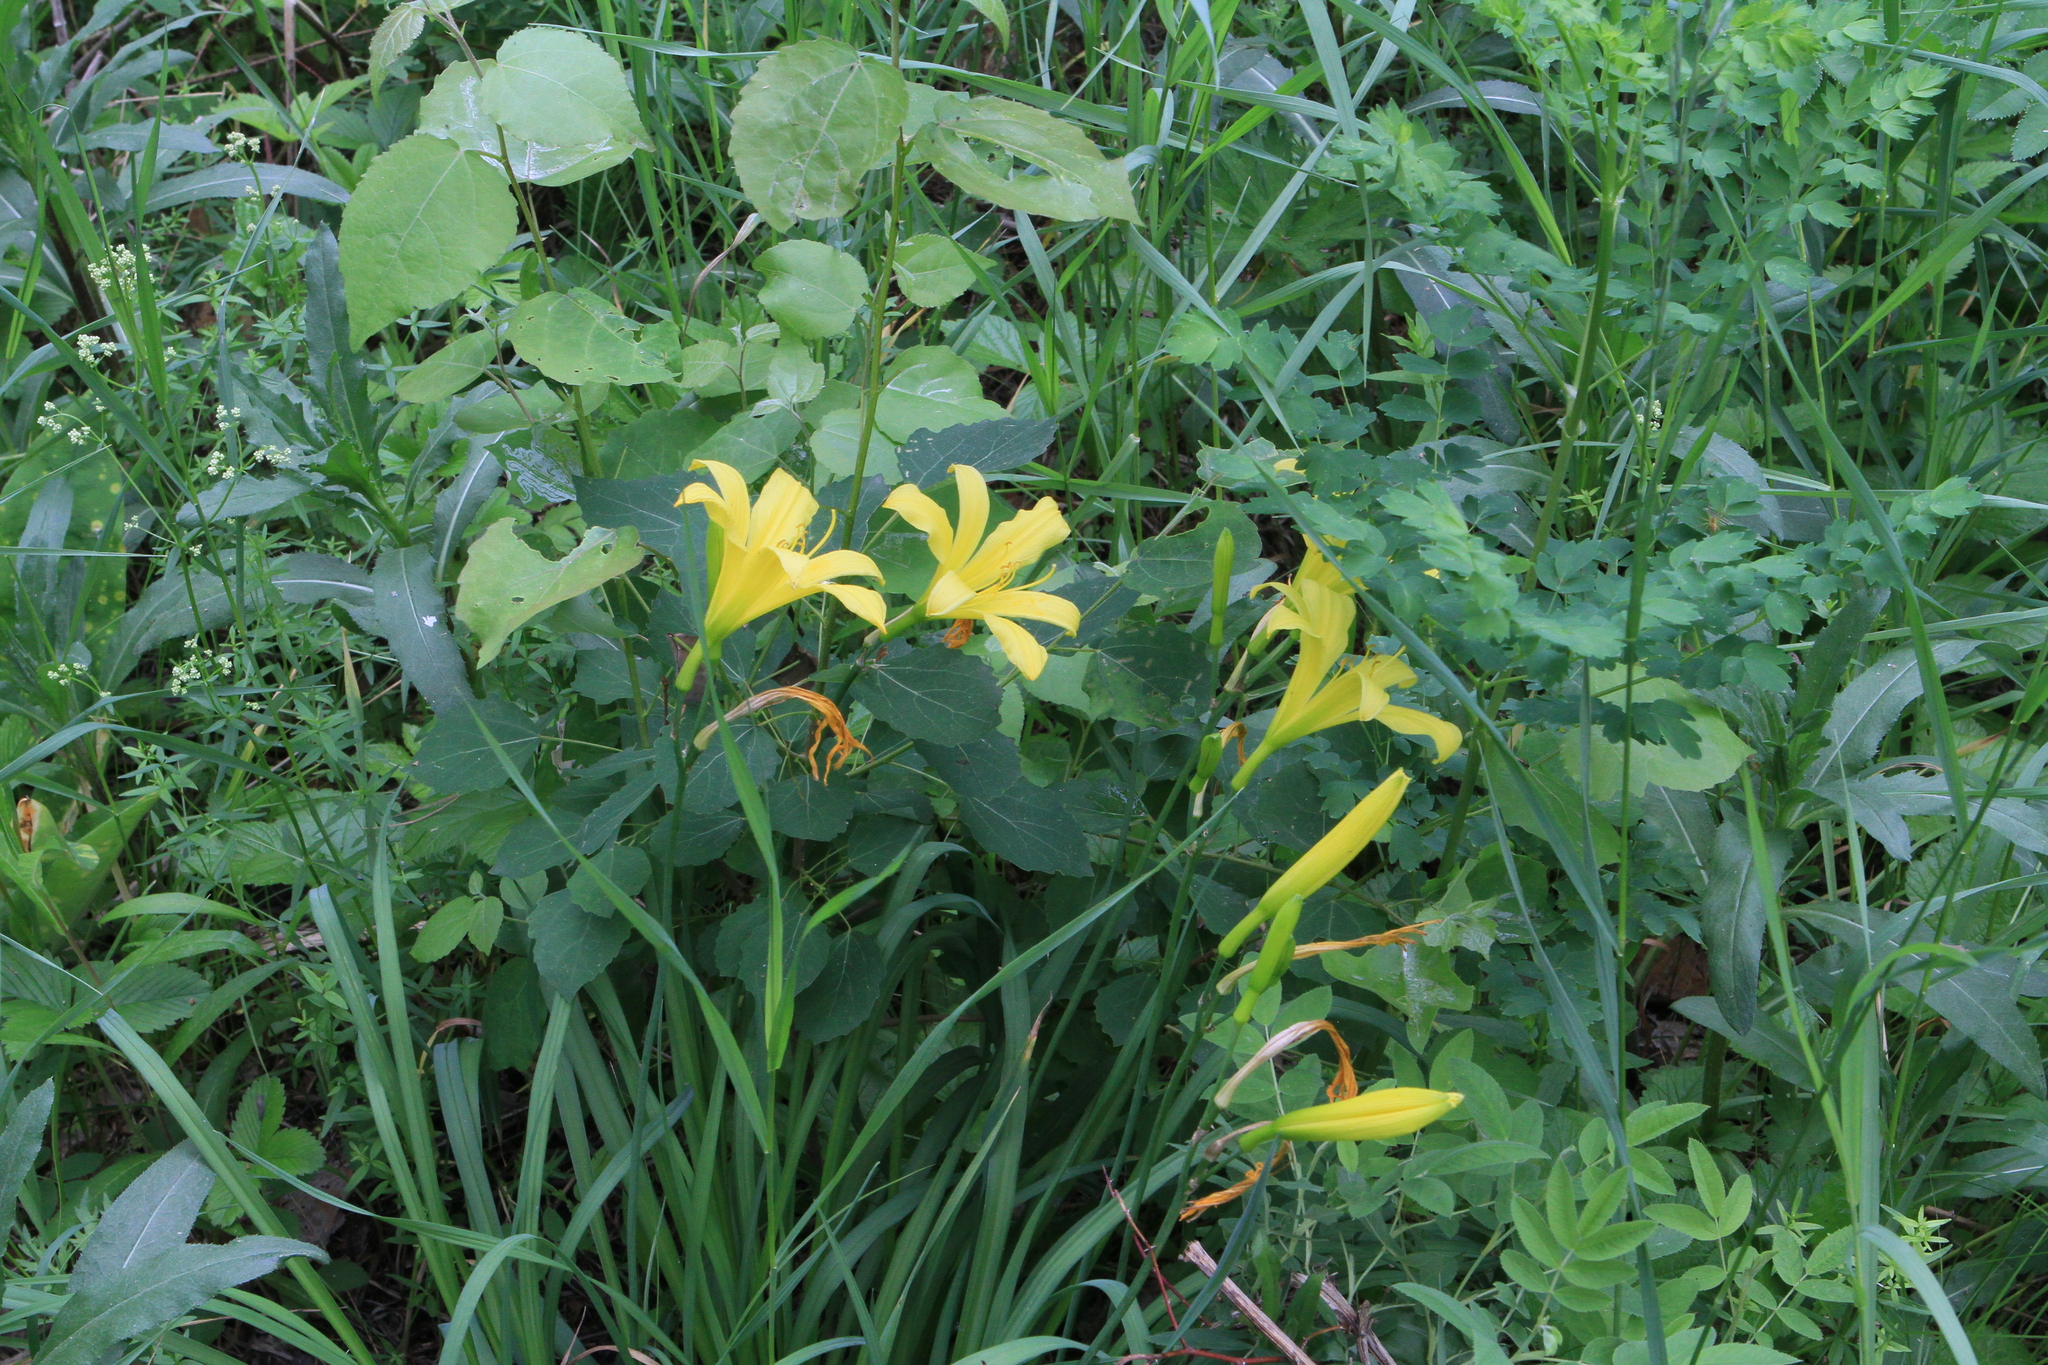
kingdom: Plantae
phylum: Tracheophyta
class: Liliopsida
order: Asparagales
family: Asphodelaceae
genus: Hemerocallis
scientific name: Hemerocallis minor
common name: Small daylily
